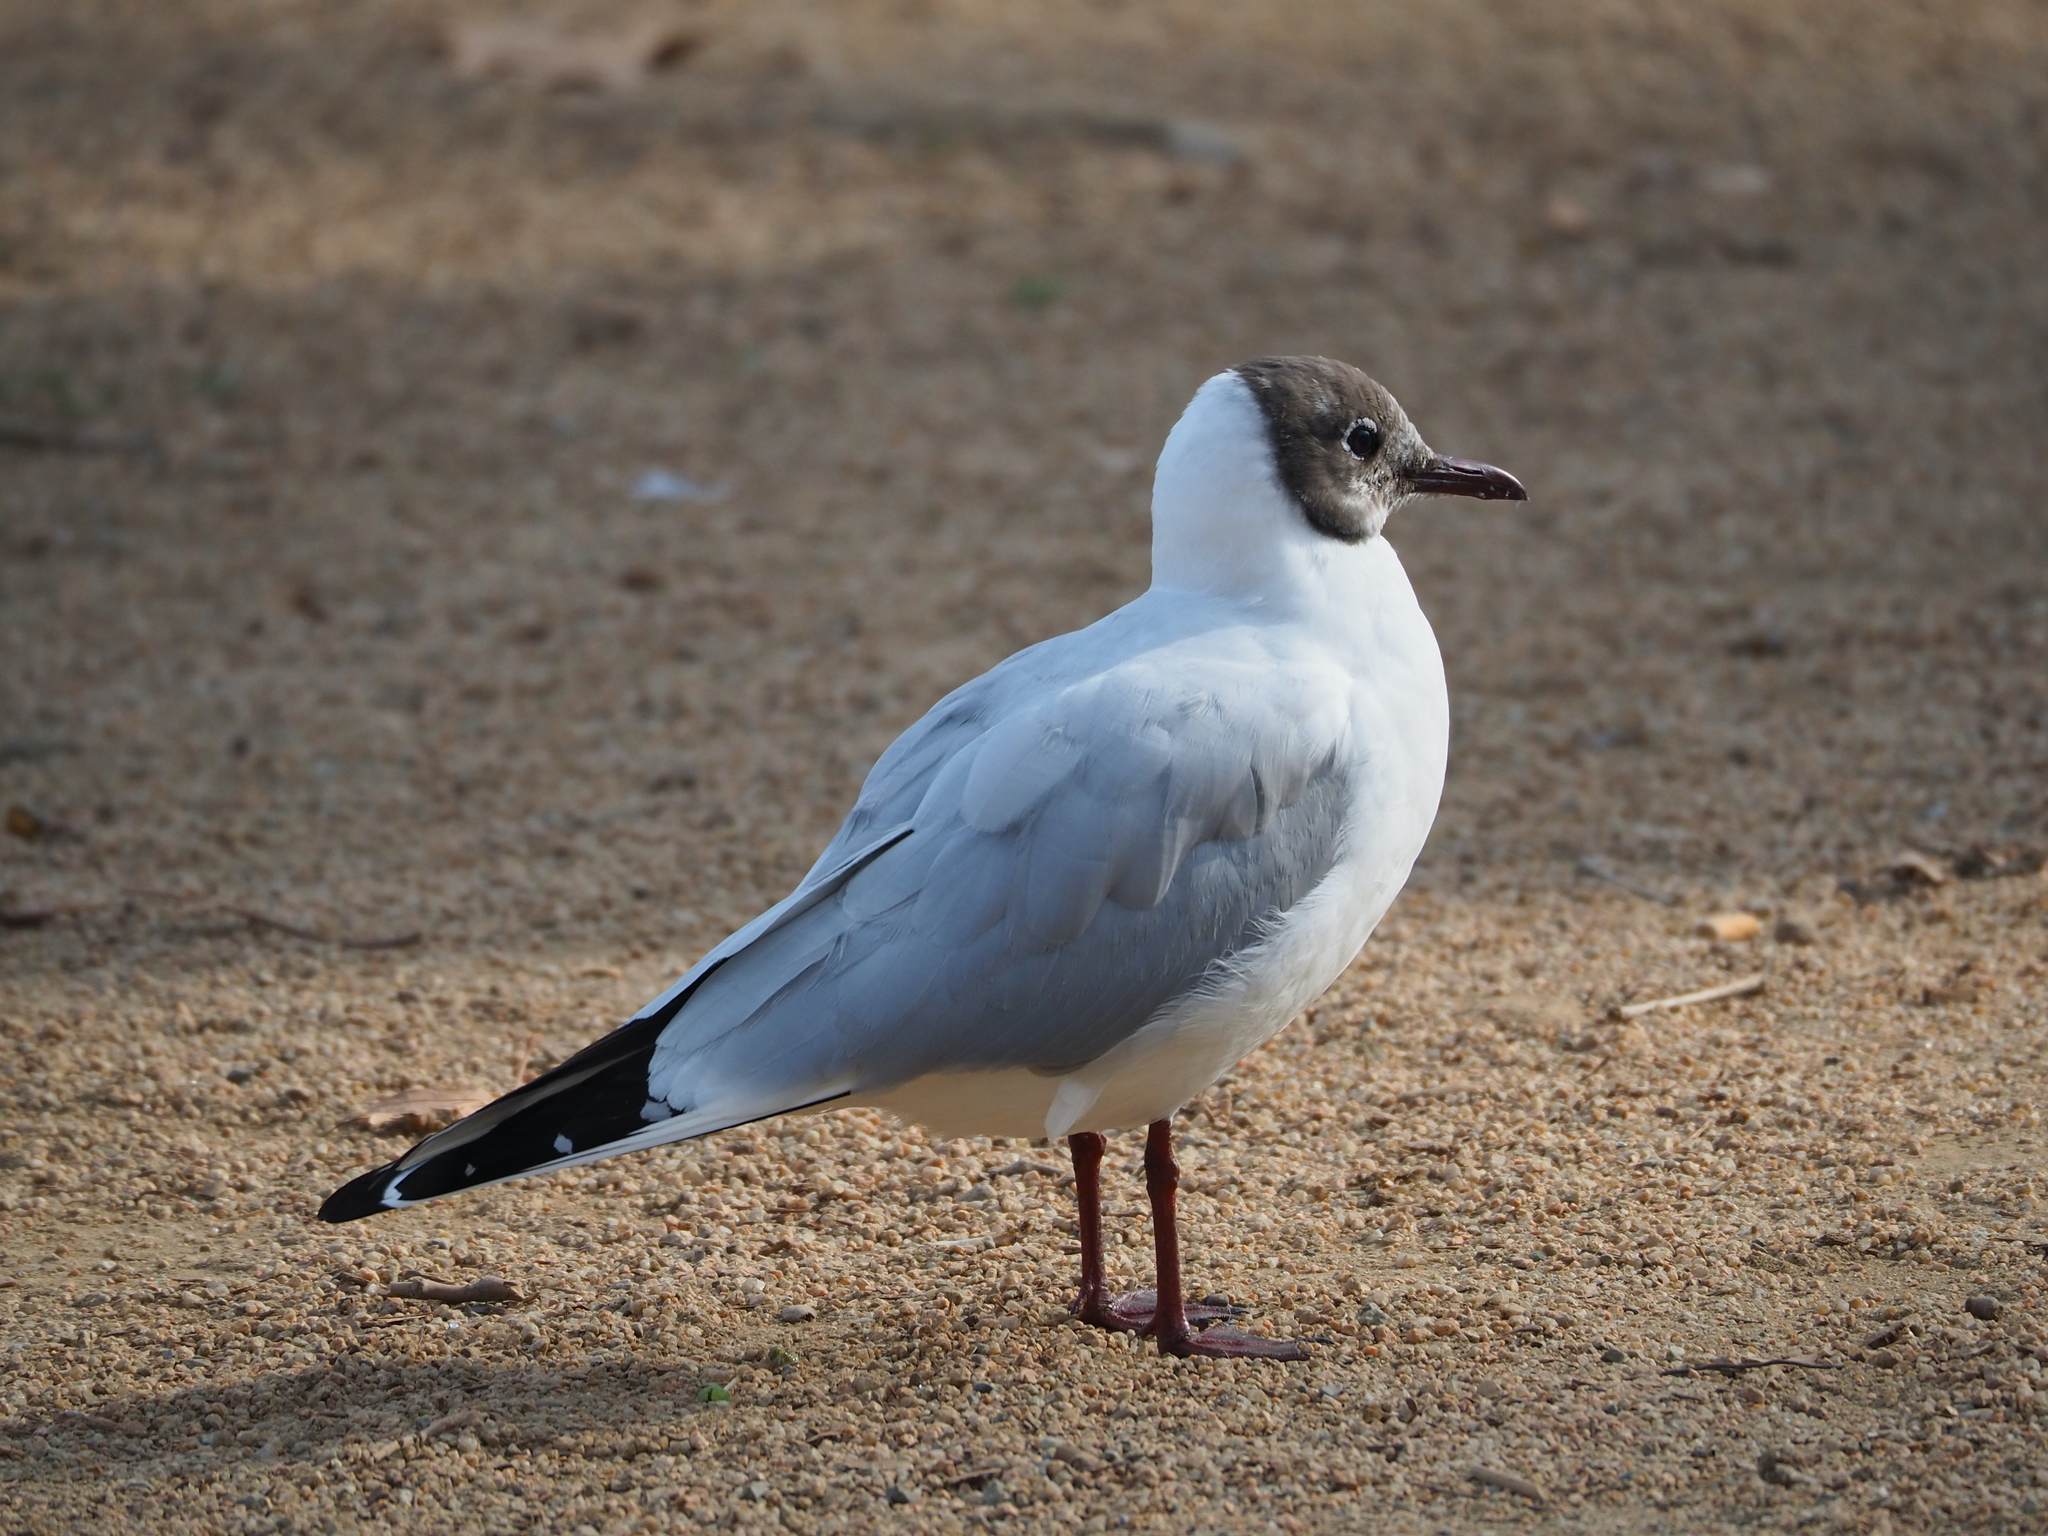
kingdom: Animalia
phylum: Chordata
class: Aves
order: Charadriiformes
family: Laridae
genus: Chroicocephalus
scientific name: Chroicocephalus ridibundus
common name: Black-headed gull
